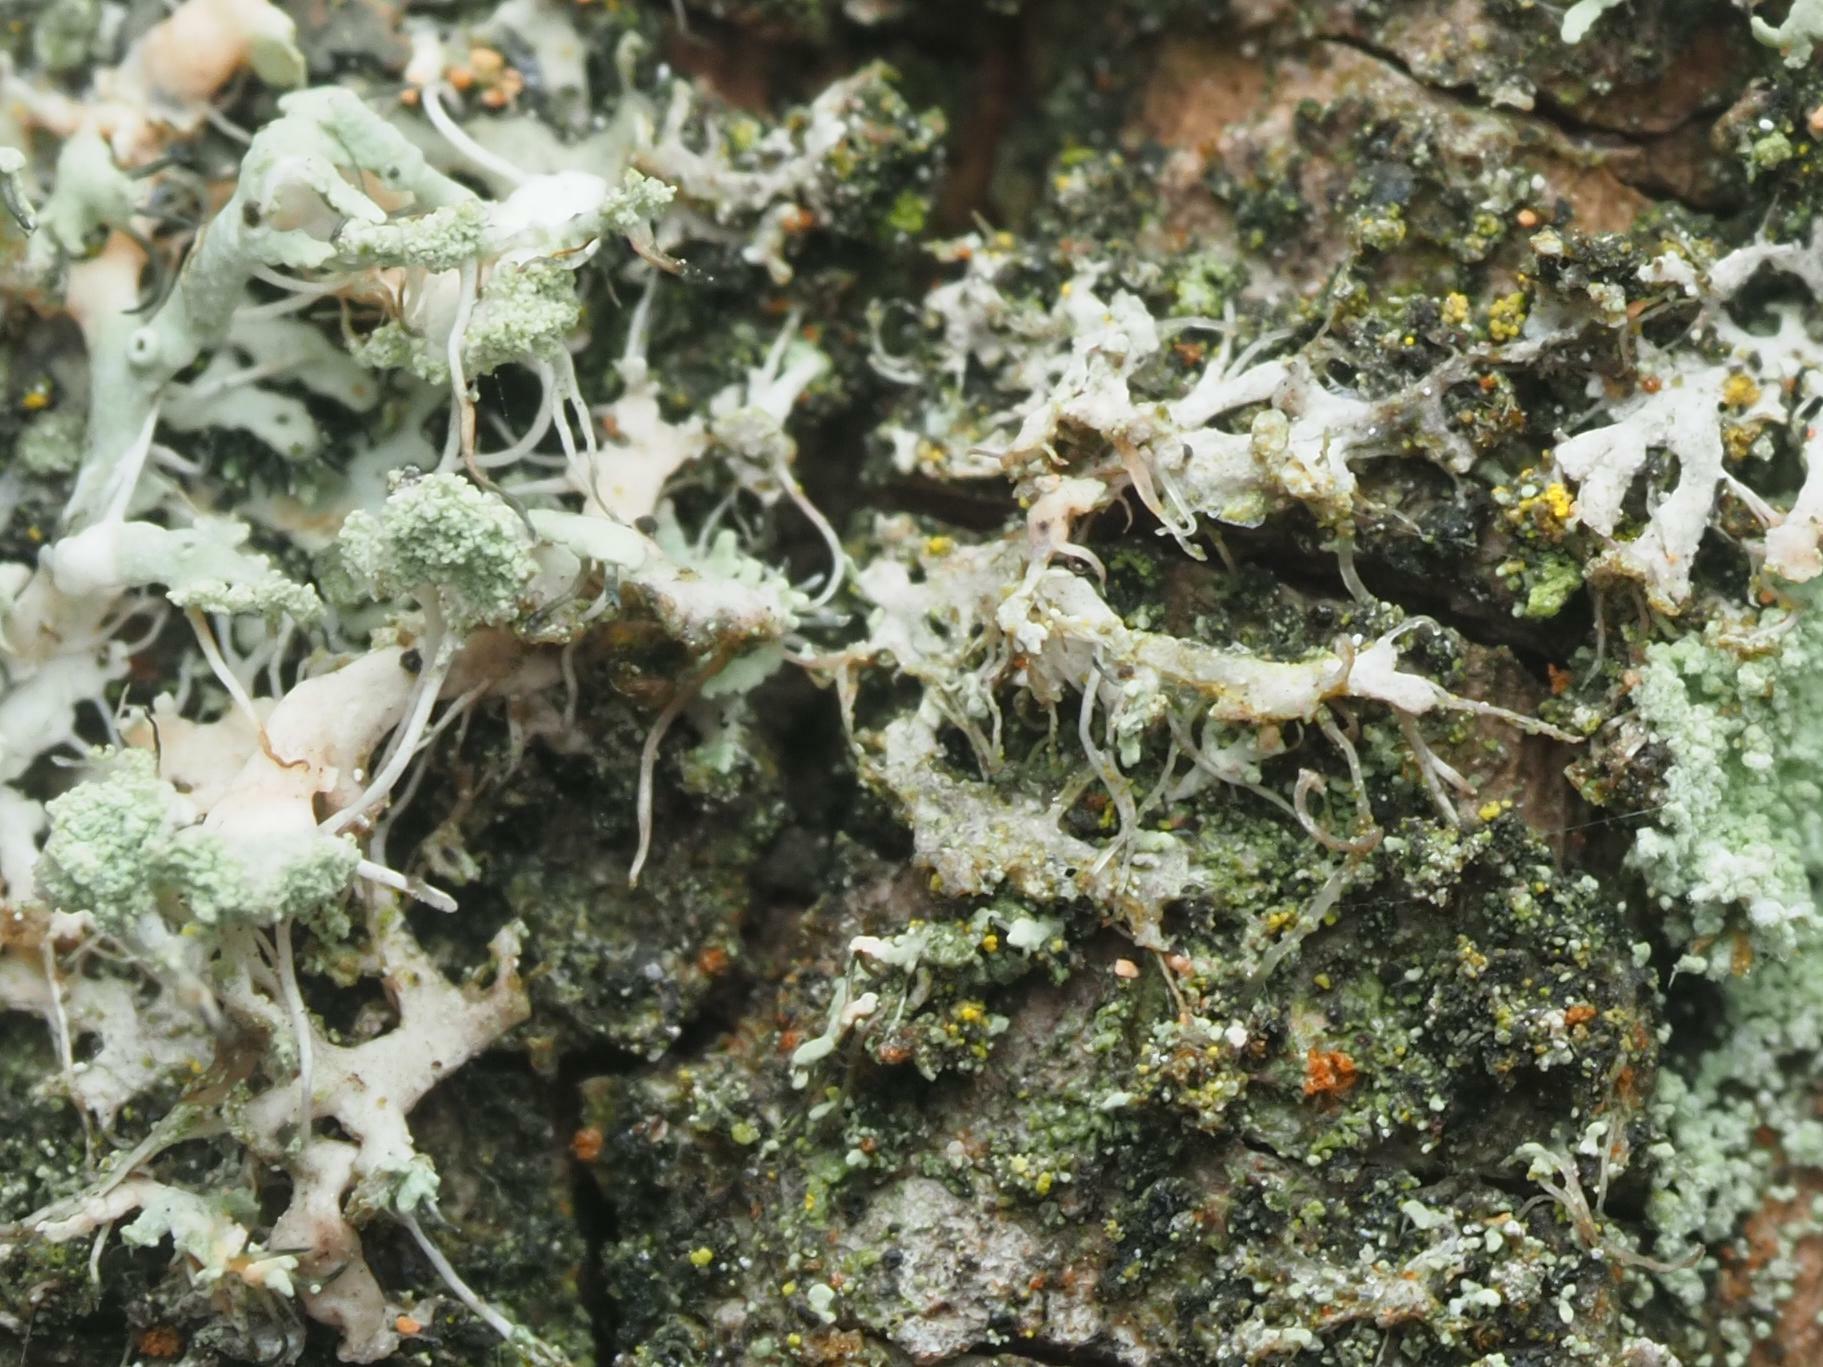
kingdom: Fungi
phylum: Ascomycota
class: Lecanoromycetes
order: Caliciales
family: Physciaceae
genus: Physcia
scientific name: Physcia tenella
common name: Fringed rosette lichen
